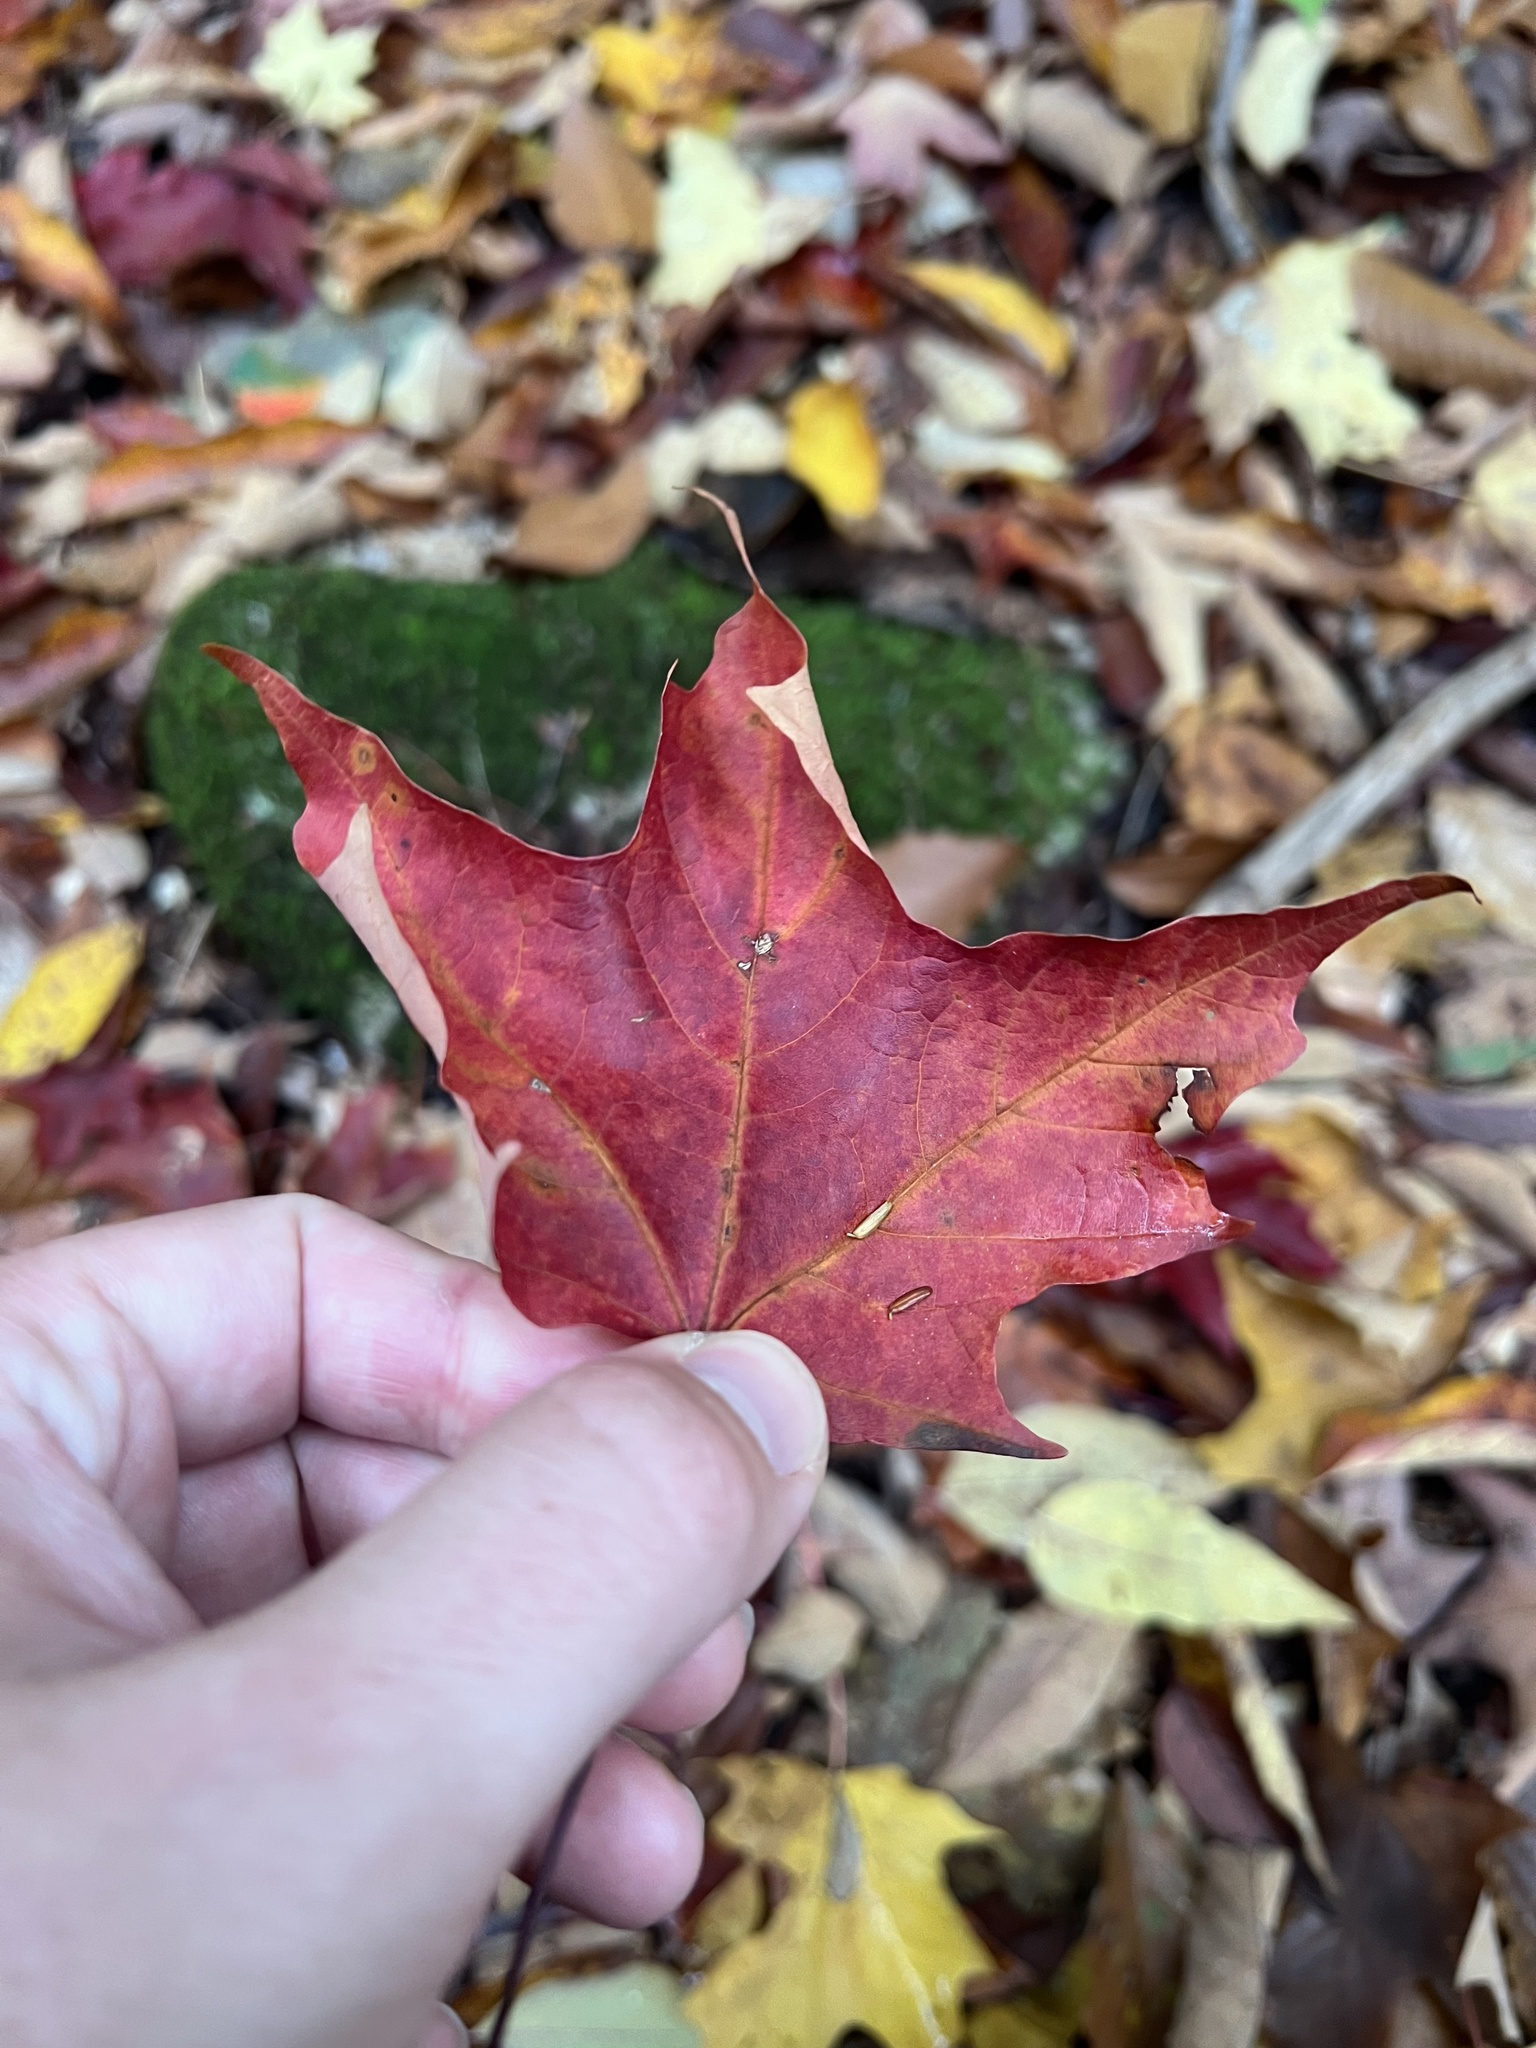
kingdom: Plantae
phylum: Tracheophyta
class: Magnoliopsida
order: Sapindales
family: Sapindaceae
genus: Acer
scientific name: Acer saccharum
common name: Sugar maple
